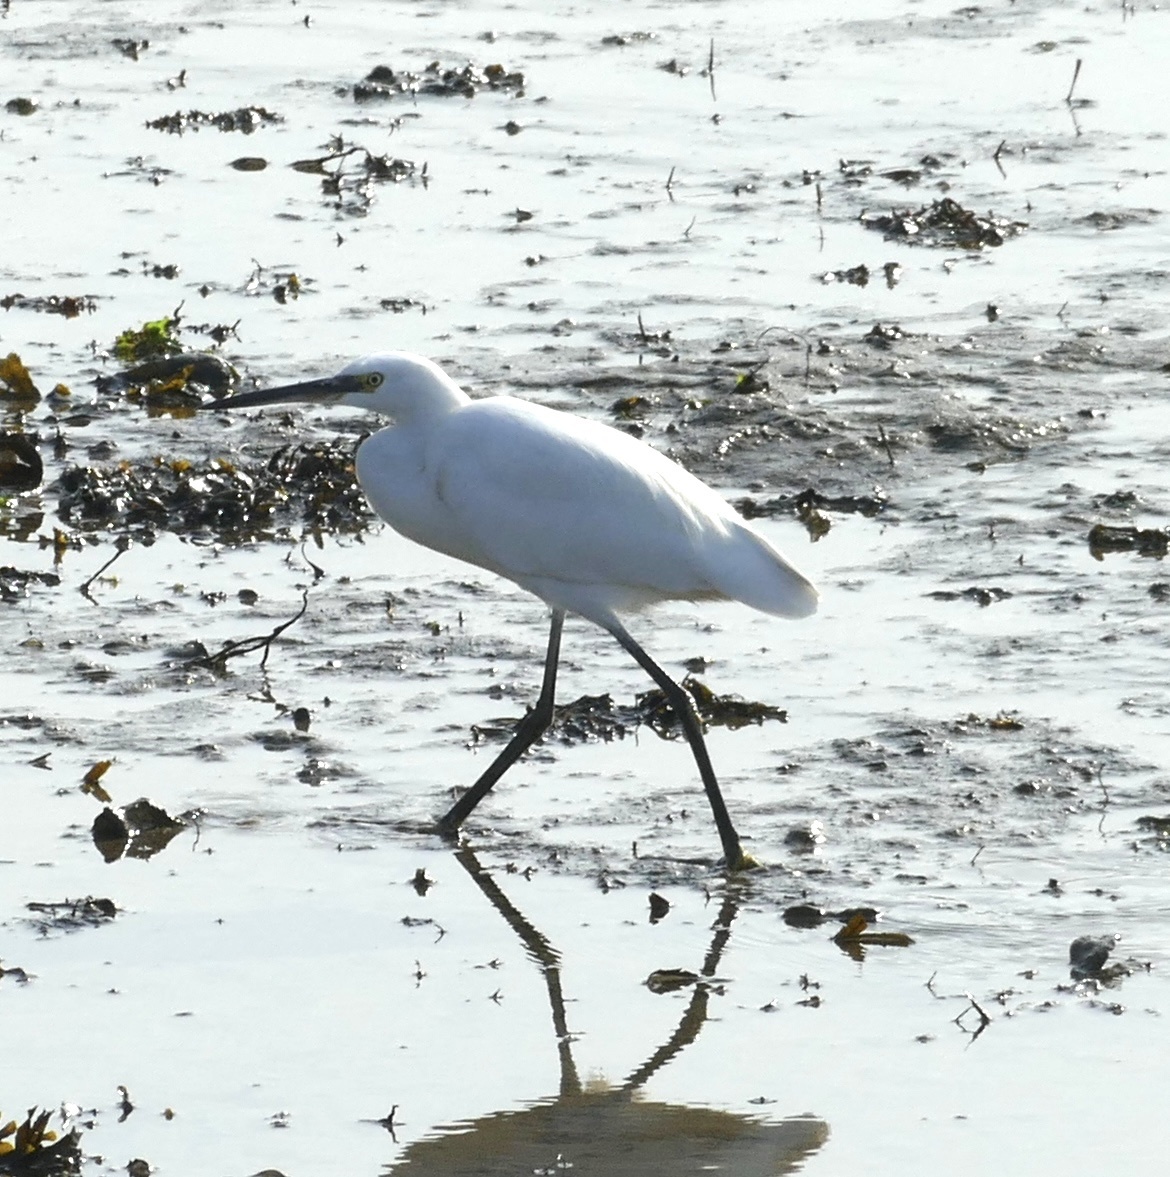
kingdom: Animalia
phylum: Chordata
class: Aves
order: Pelecaniformes
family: Ardeidae
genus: Egretta
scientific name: Egretta garzetta
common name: Little egret
